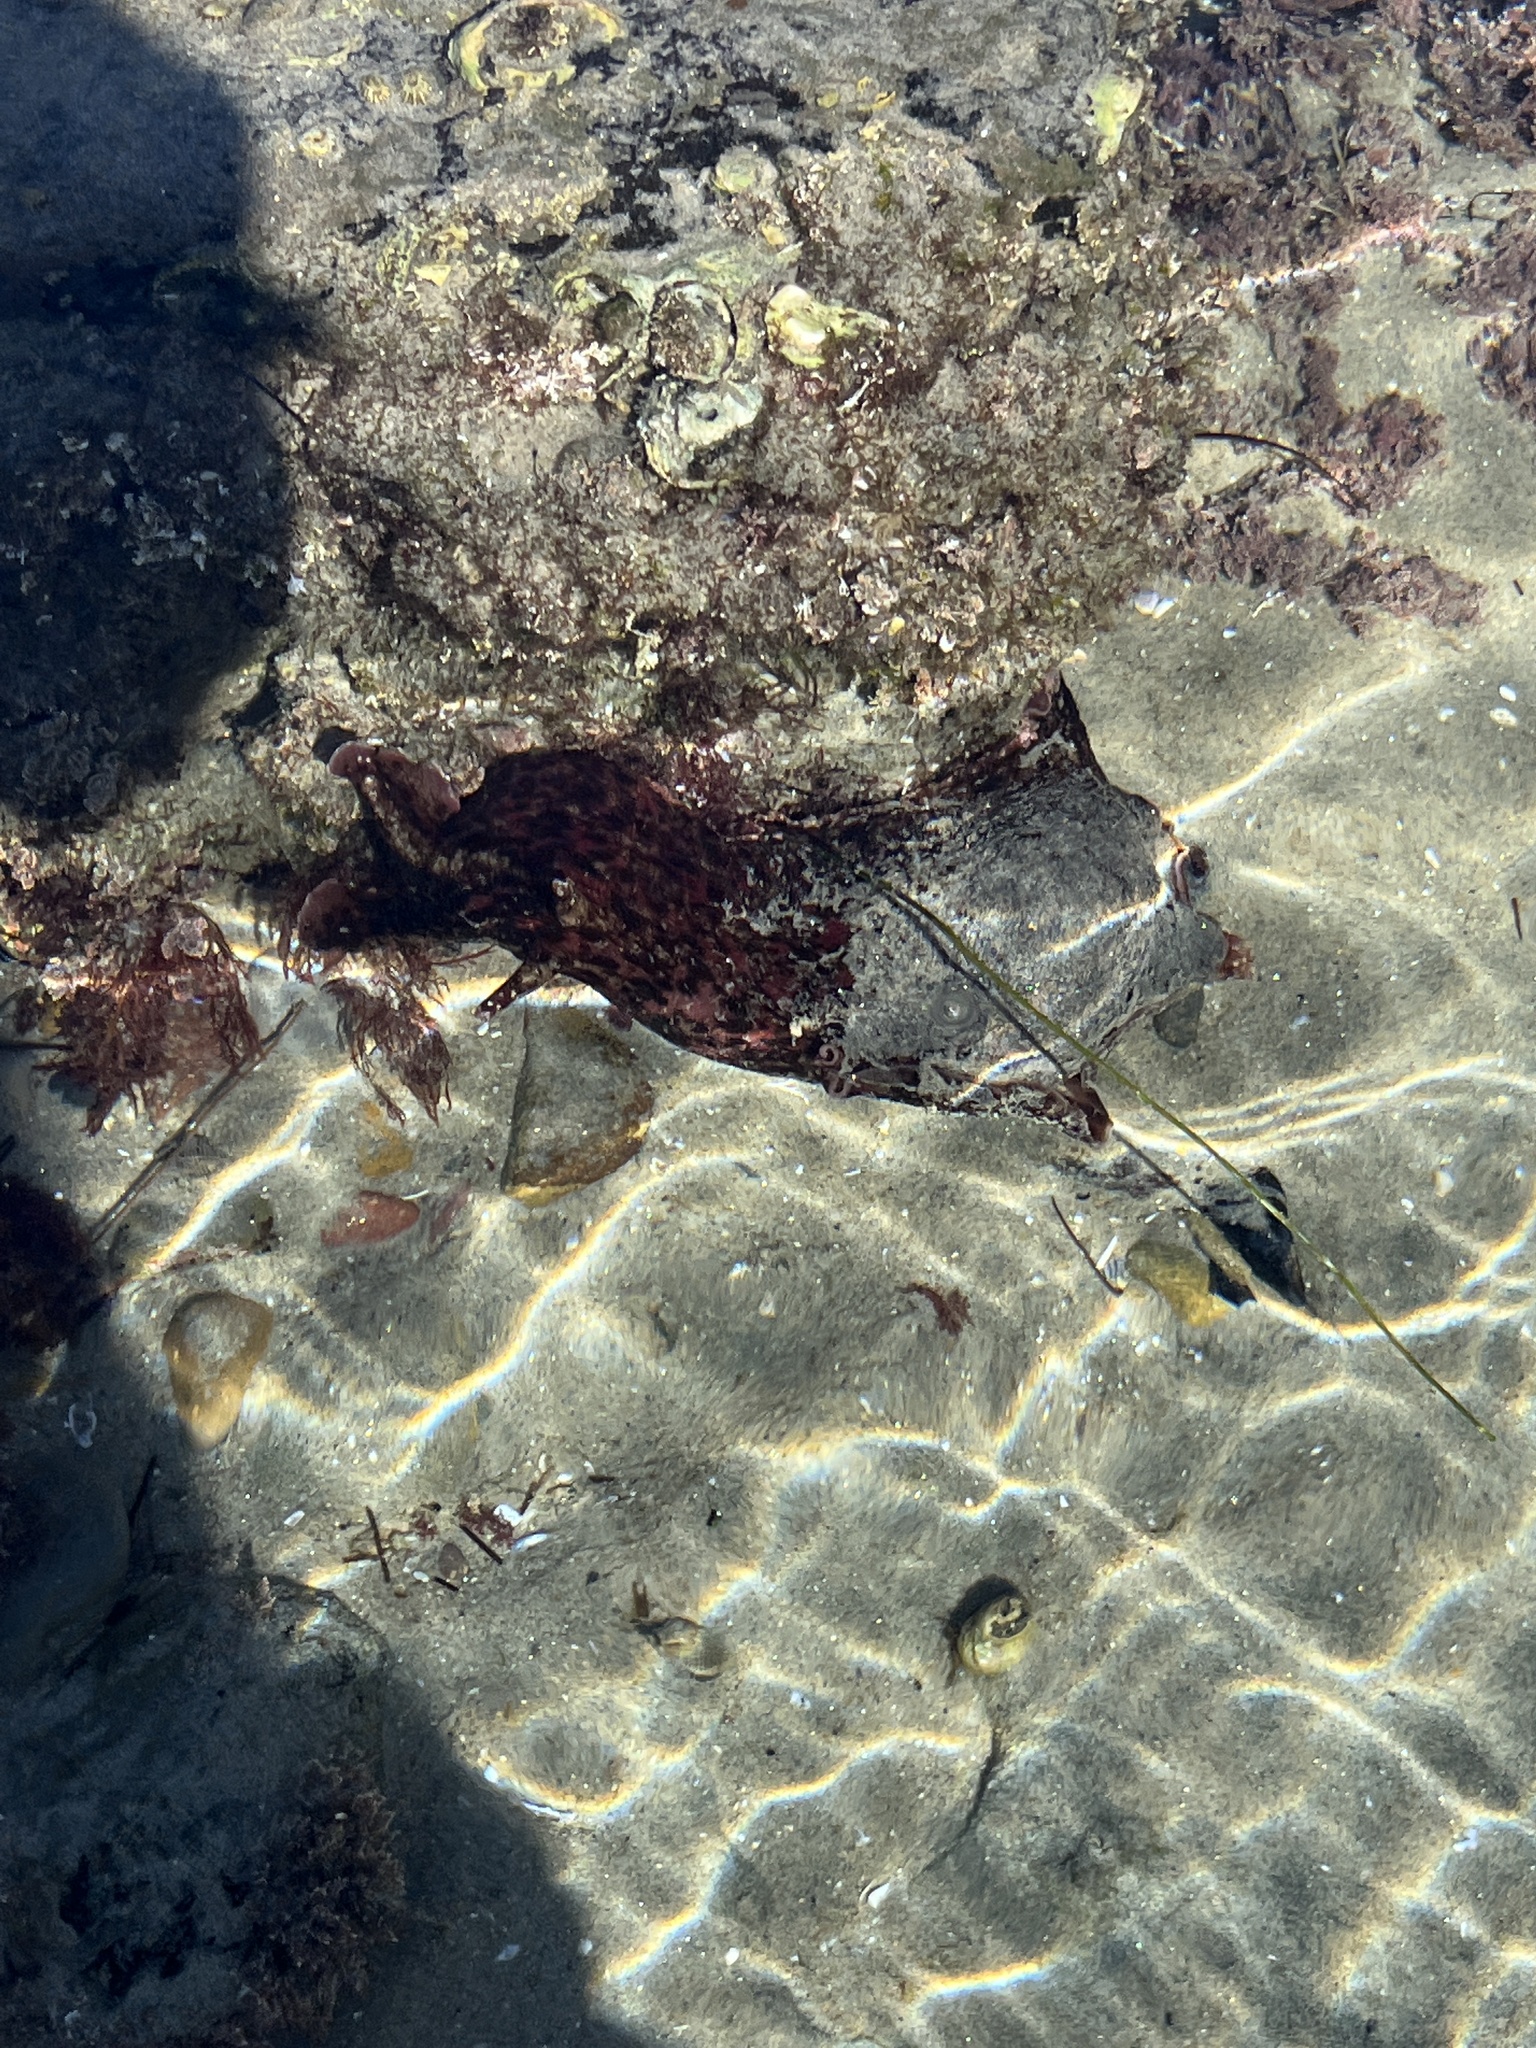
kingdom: Animalia
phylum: Mollusca
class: Gastropoda
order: Aplysiida
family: Aplysiidae
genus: Aplysia
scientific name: Aplysia californica
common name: California seahare
